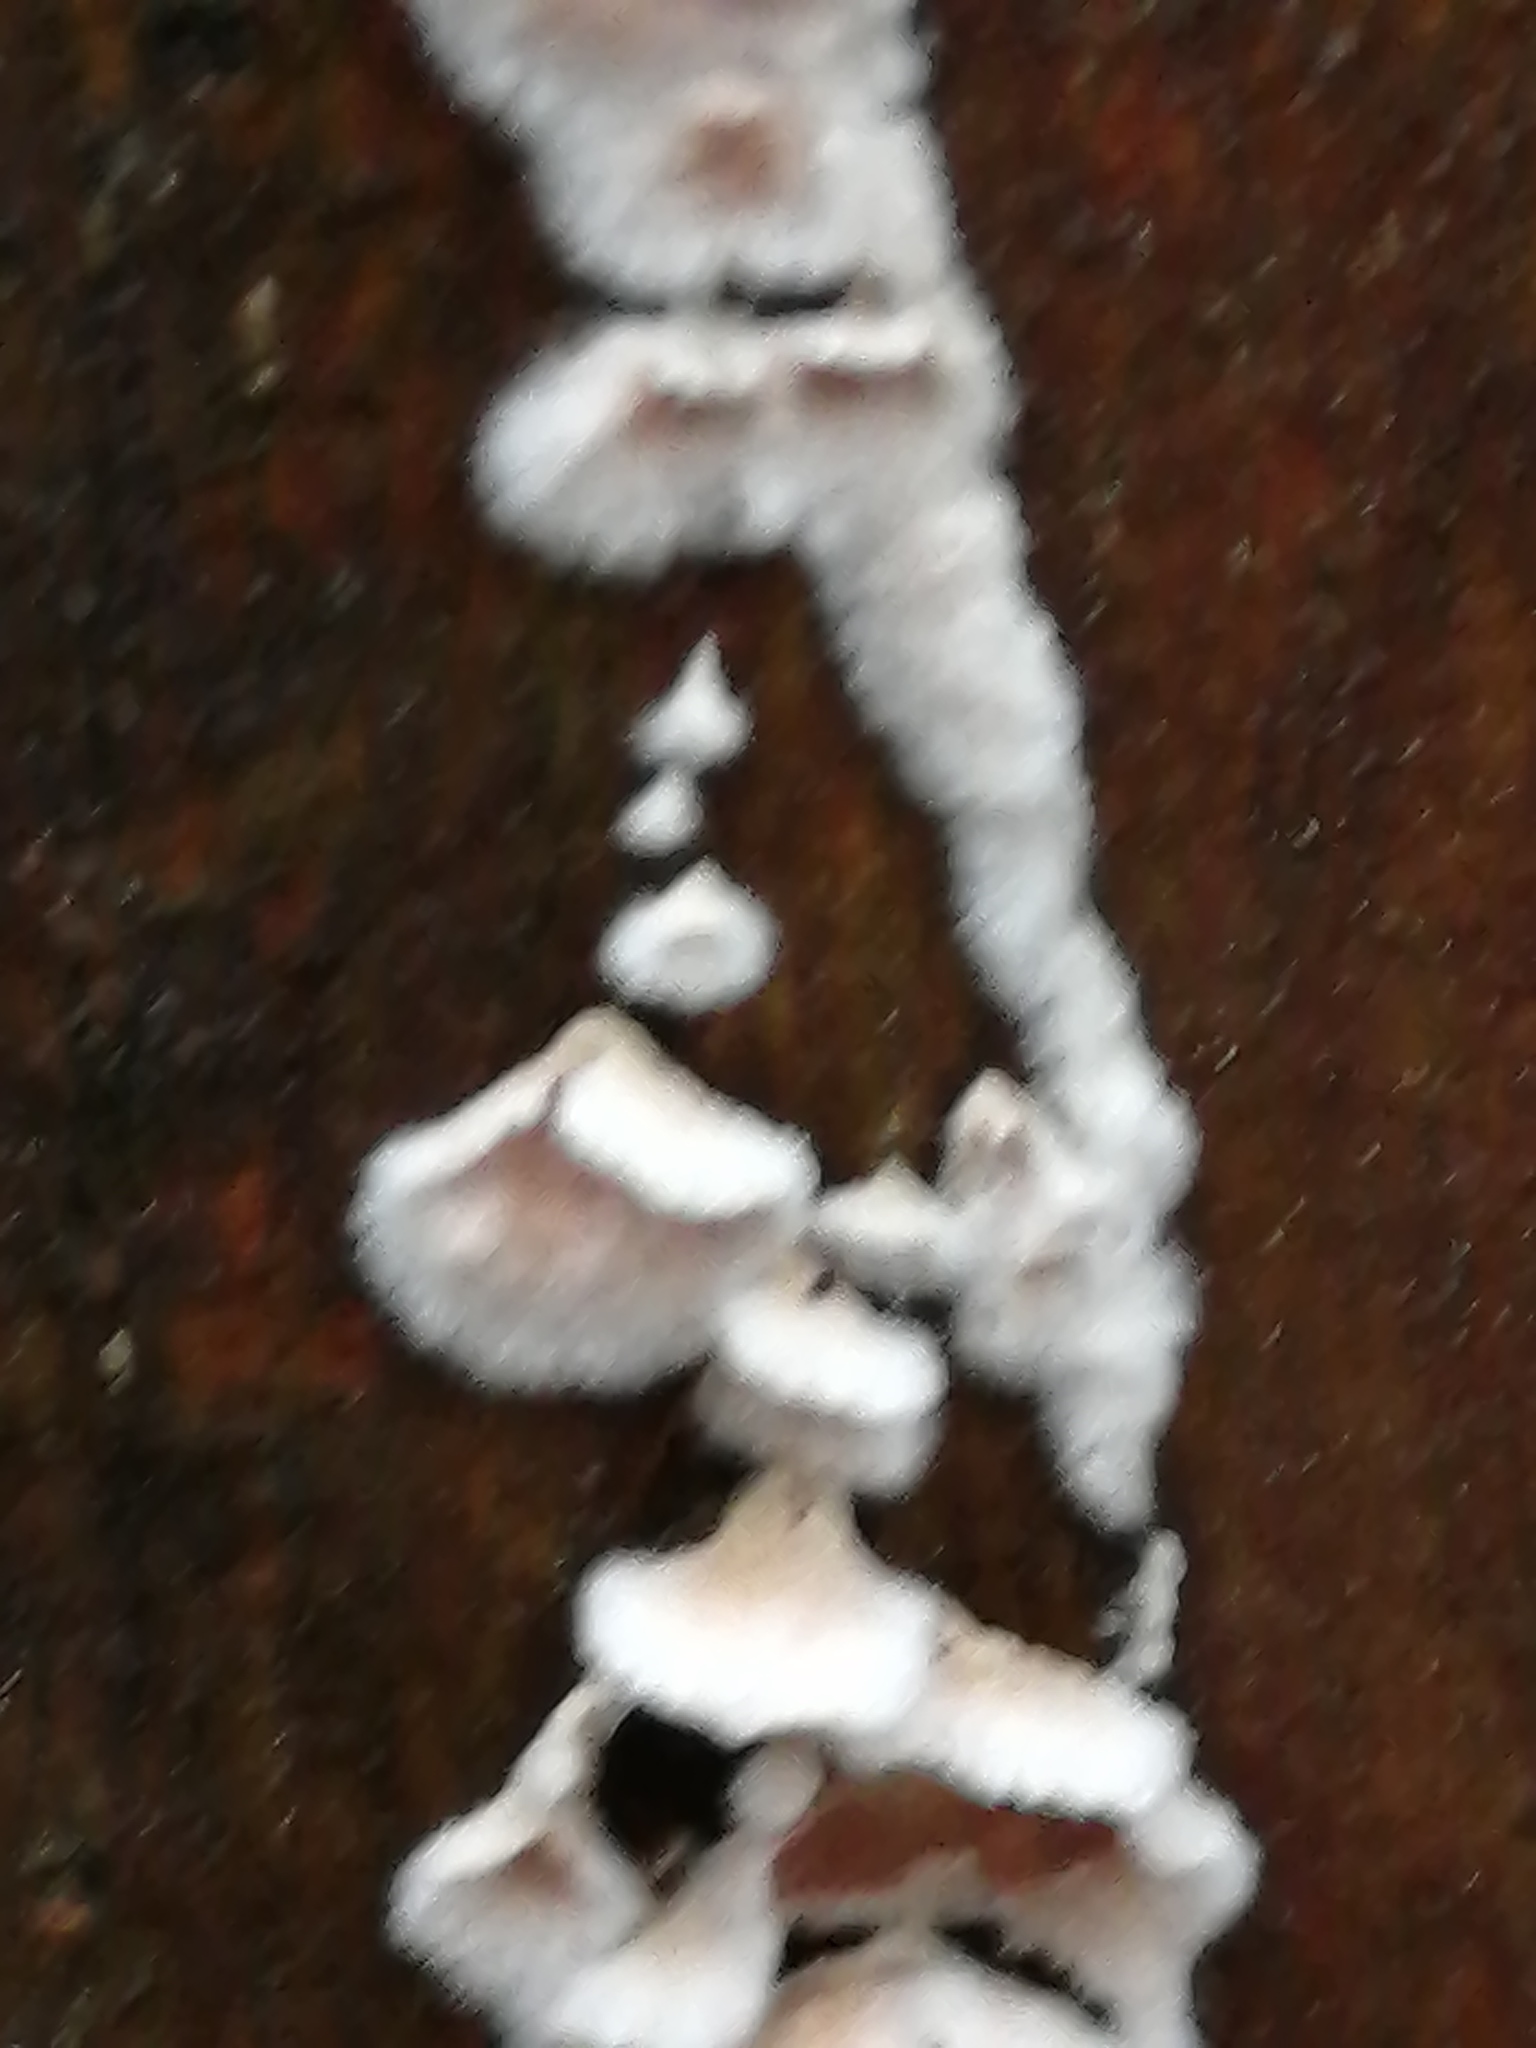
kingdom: Fungi
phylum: Basidiomycota
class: Agaricomycetes
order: Agaricales
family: Cyphellaceae
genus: Chondrostereum
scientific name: Chondrostereum purpureum
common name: Silver leaf disease
